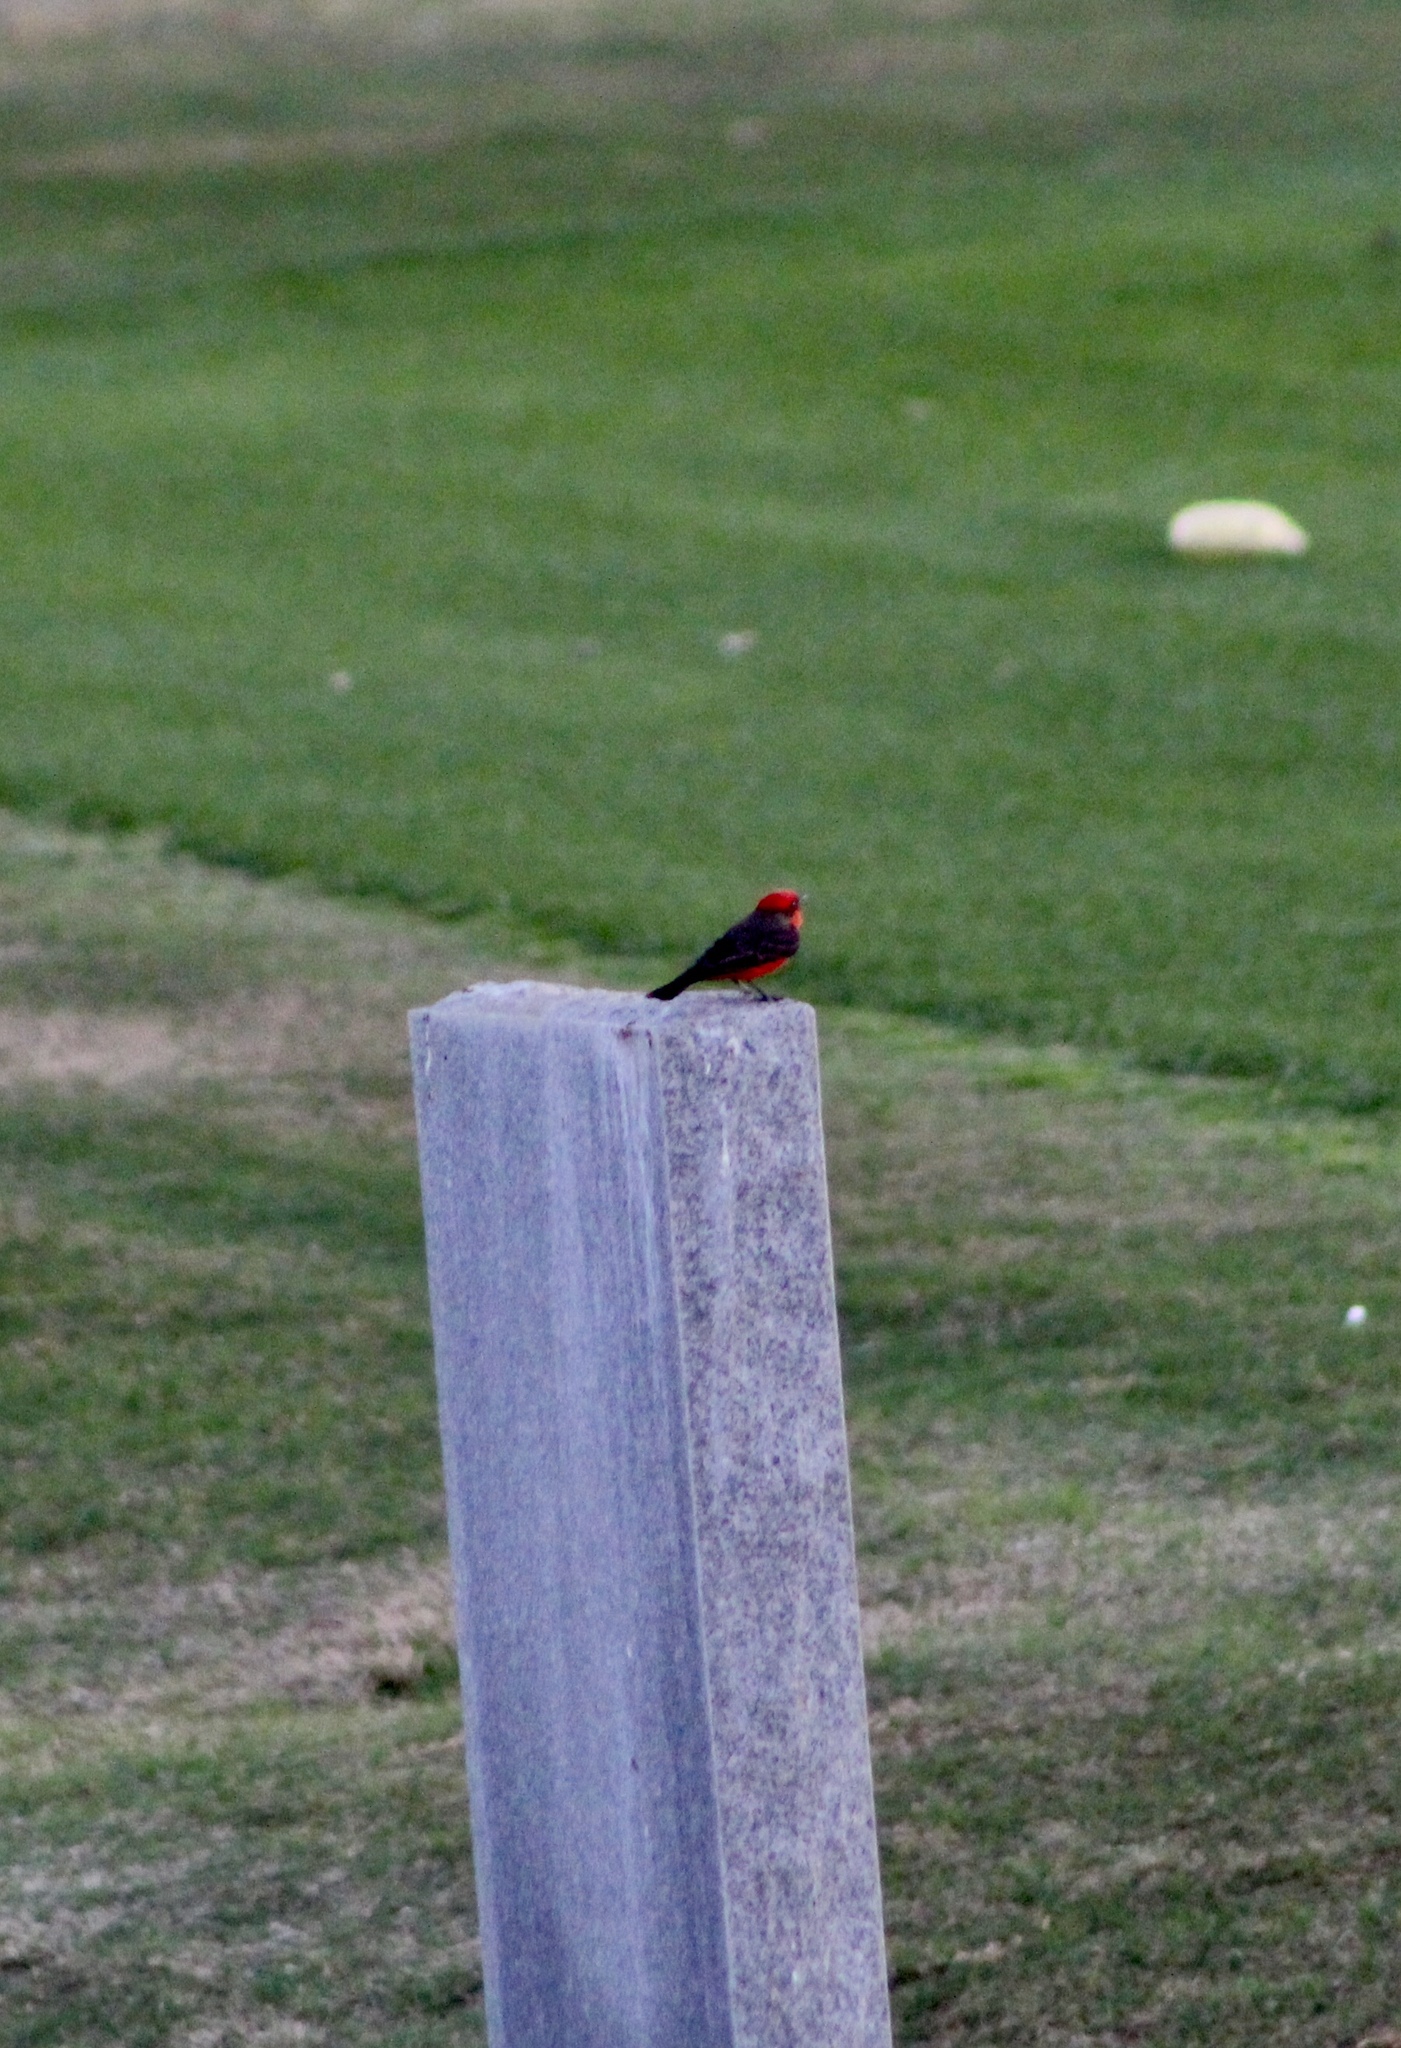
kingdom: Animalia
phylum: Chordata
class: Aves
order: Passeriformes
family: Tyrannidae
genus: Pyrocephalus
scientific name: Pyrocephalus rubinus
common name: Vermilion flycatcher
